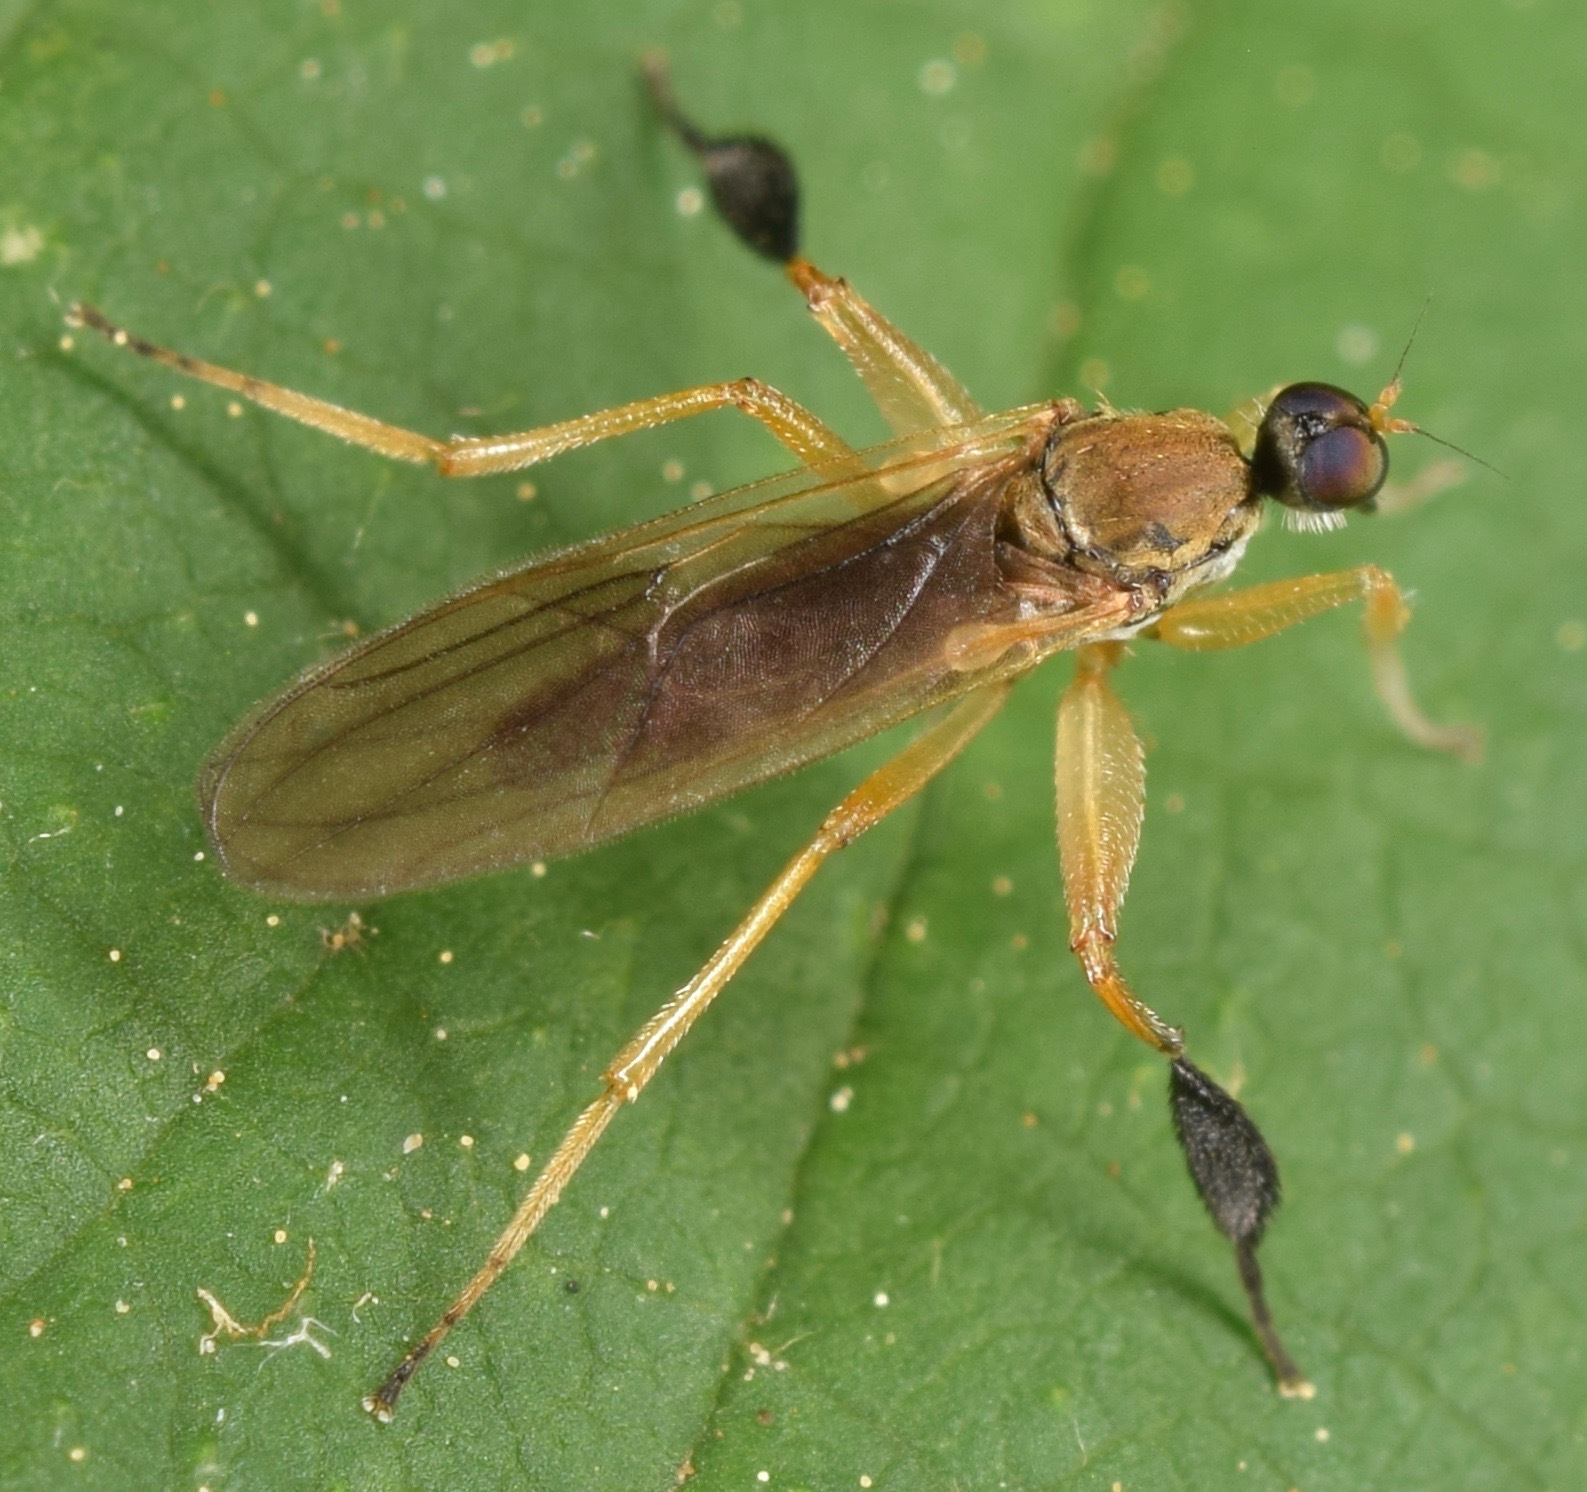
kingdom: Animalia
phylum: Arthropoda
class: Insecta
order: Diptera
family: Hybotidae
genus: Platypalpus
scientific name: Platypalpus discifer
